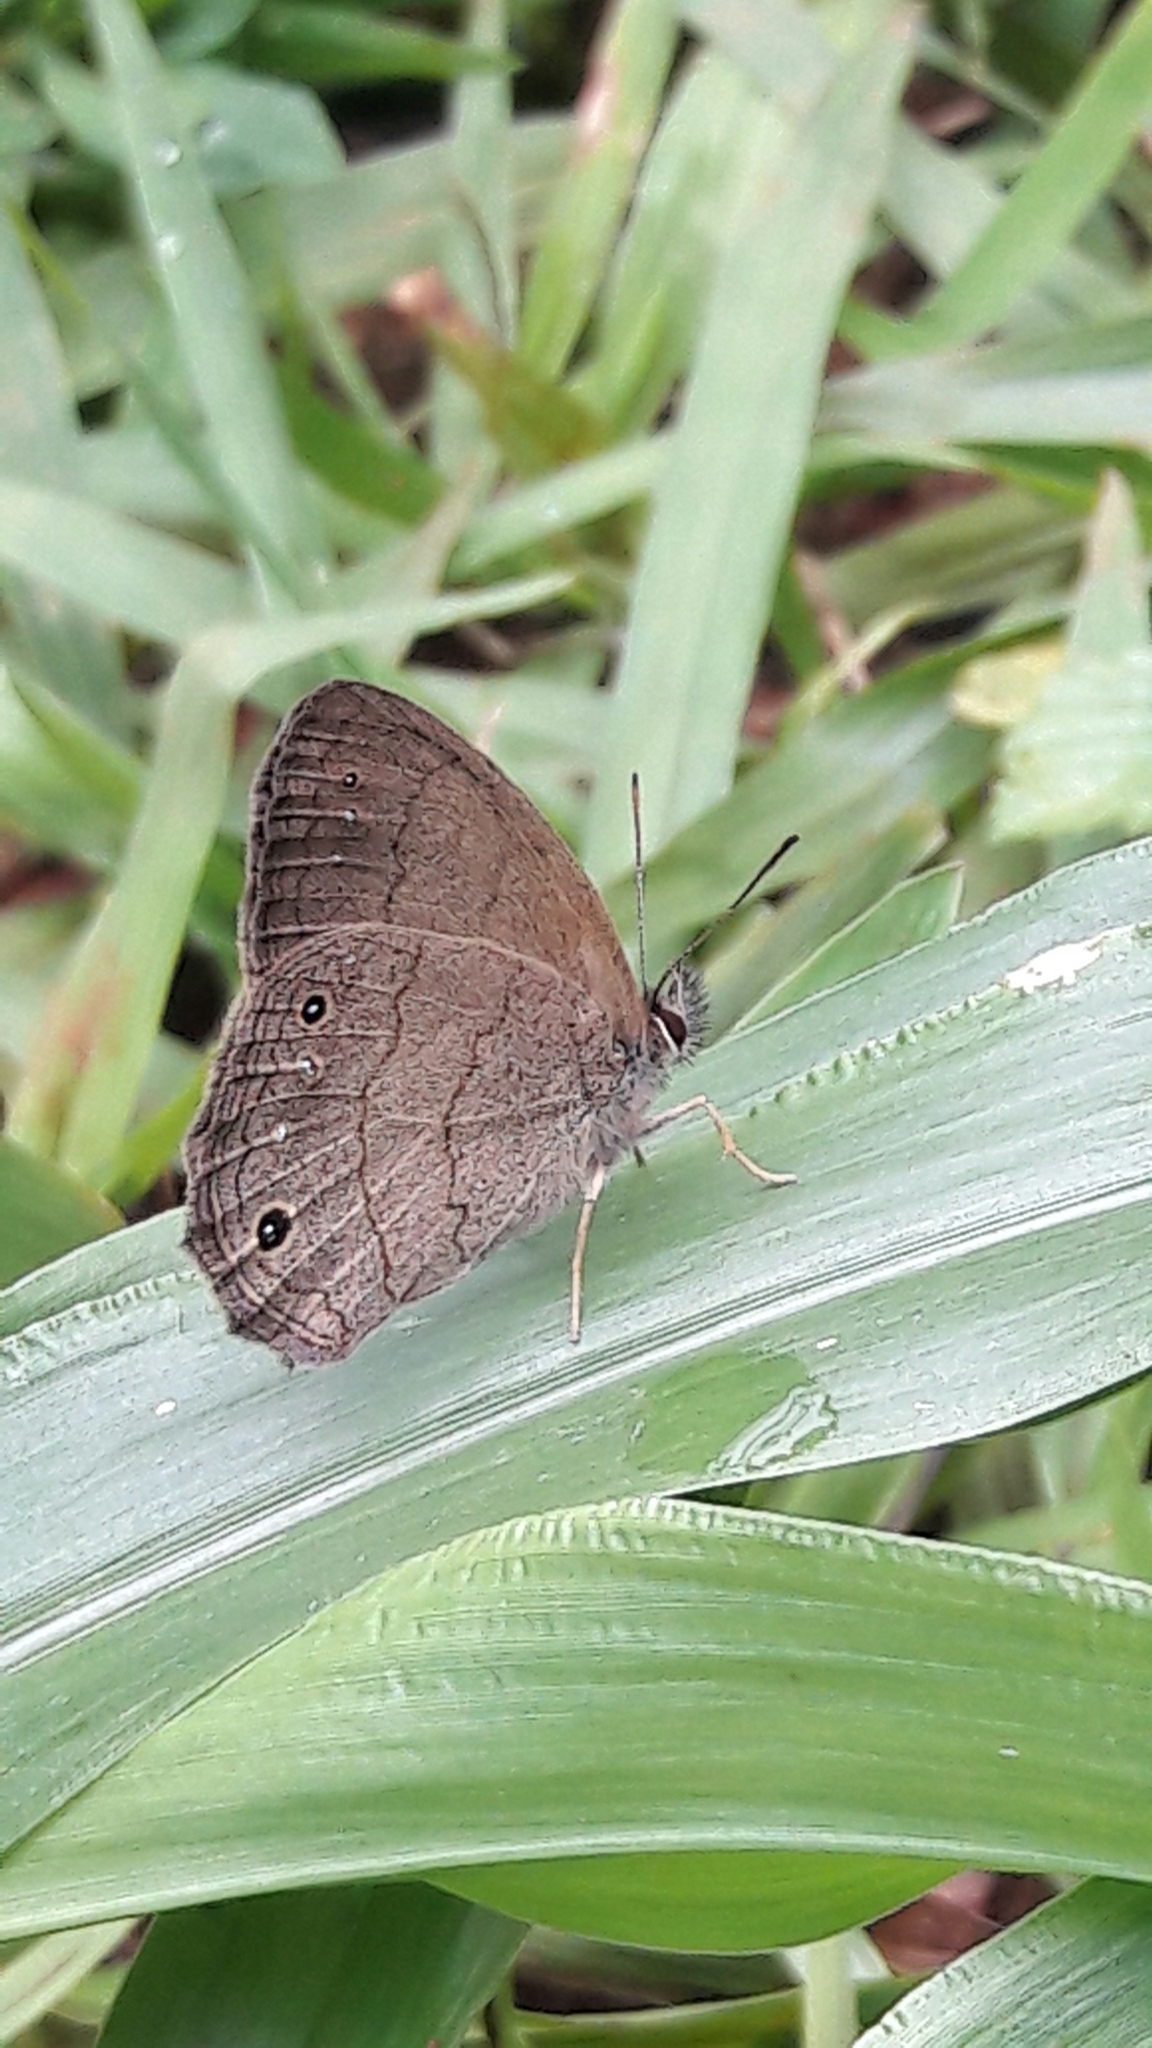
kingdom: Animalia
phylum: Arthropoda
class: Insecta
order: Lepidoptera
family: Nymphalidae
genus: Euptychia
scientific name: Euptychia Cissia eous
